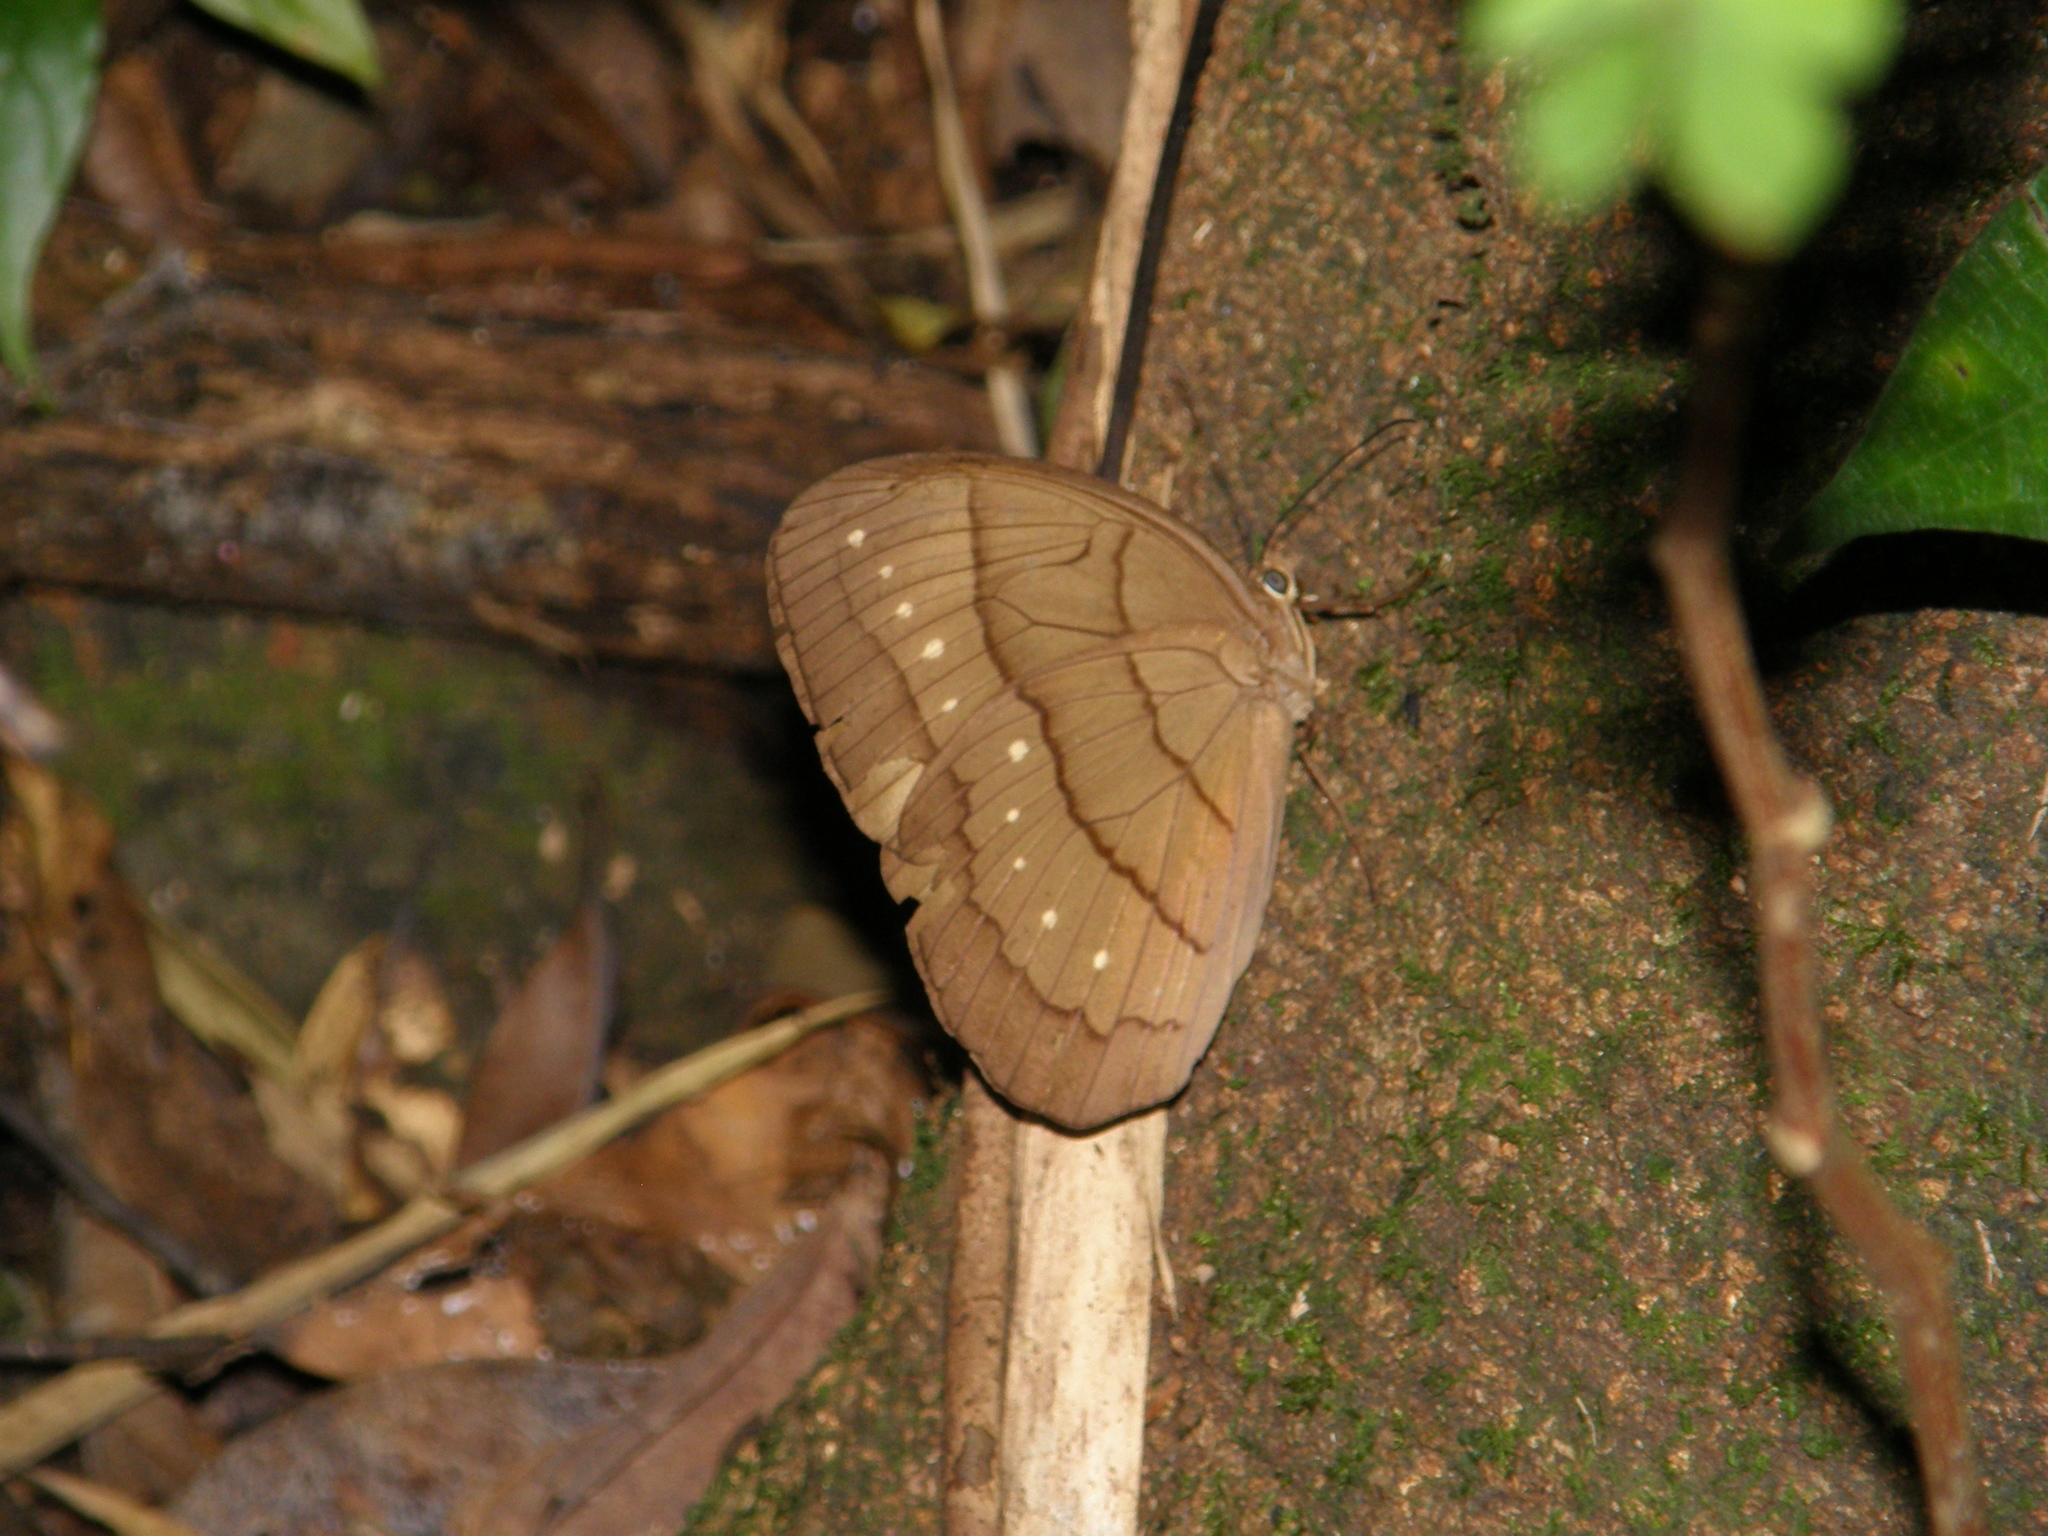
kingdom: Animalia
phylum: Arthropoda
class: Insecta
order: Lepidoptera
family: Nymphalidae
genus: Faunis
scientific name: Faunis aerope
